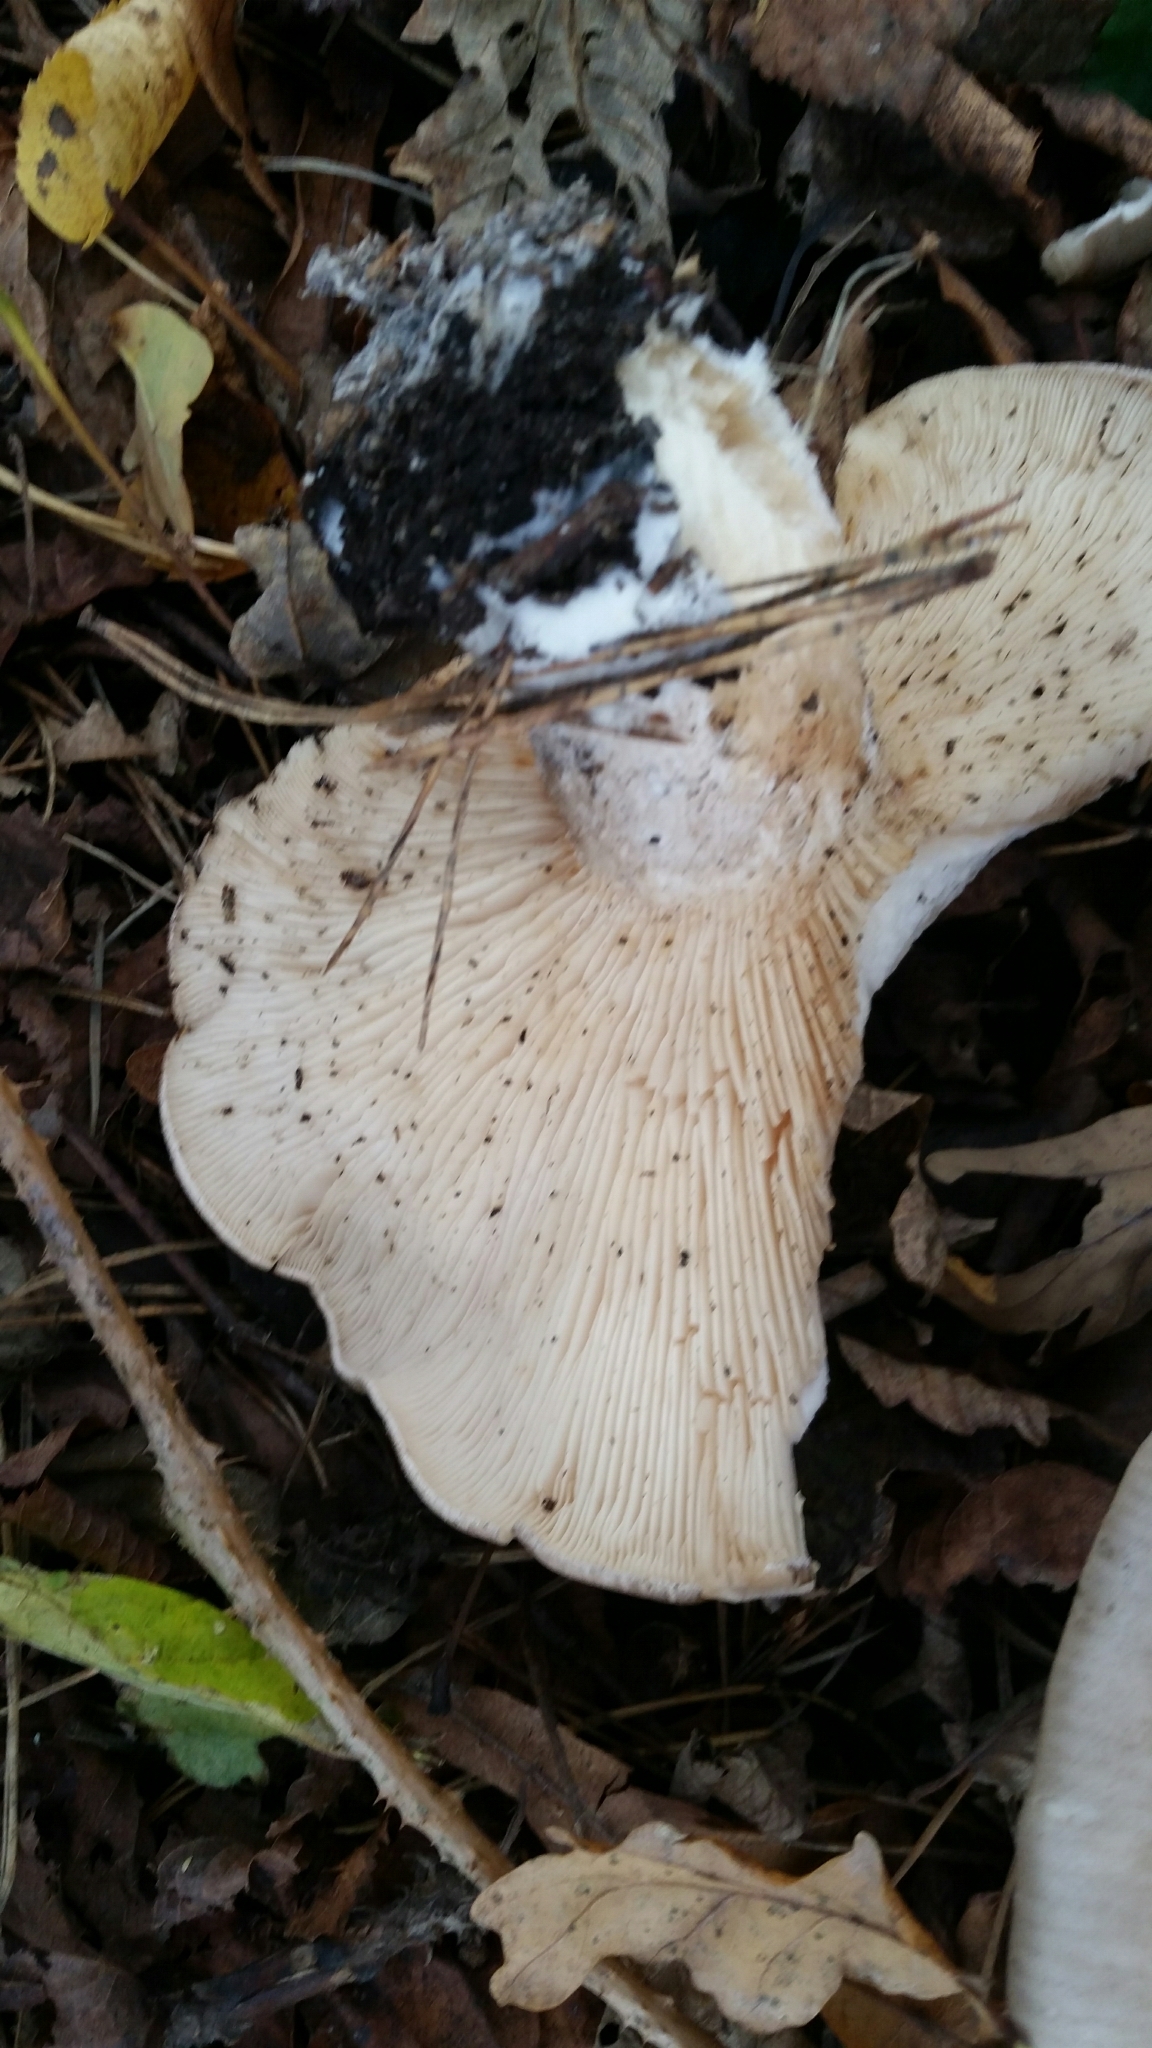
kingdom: Fungi
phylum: Basidiomycota
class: Agaricomycetes
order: Agaricales
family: Tricholomataceae
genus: Clitocybe
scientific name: Clitocybe nebularis
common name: Clouded agaric
